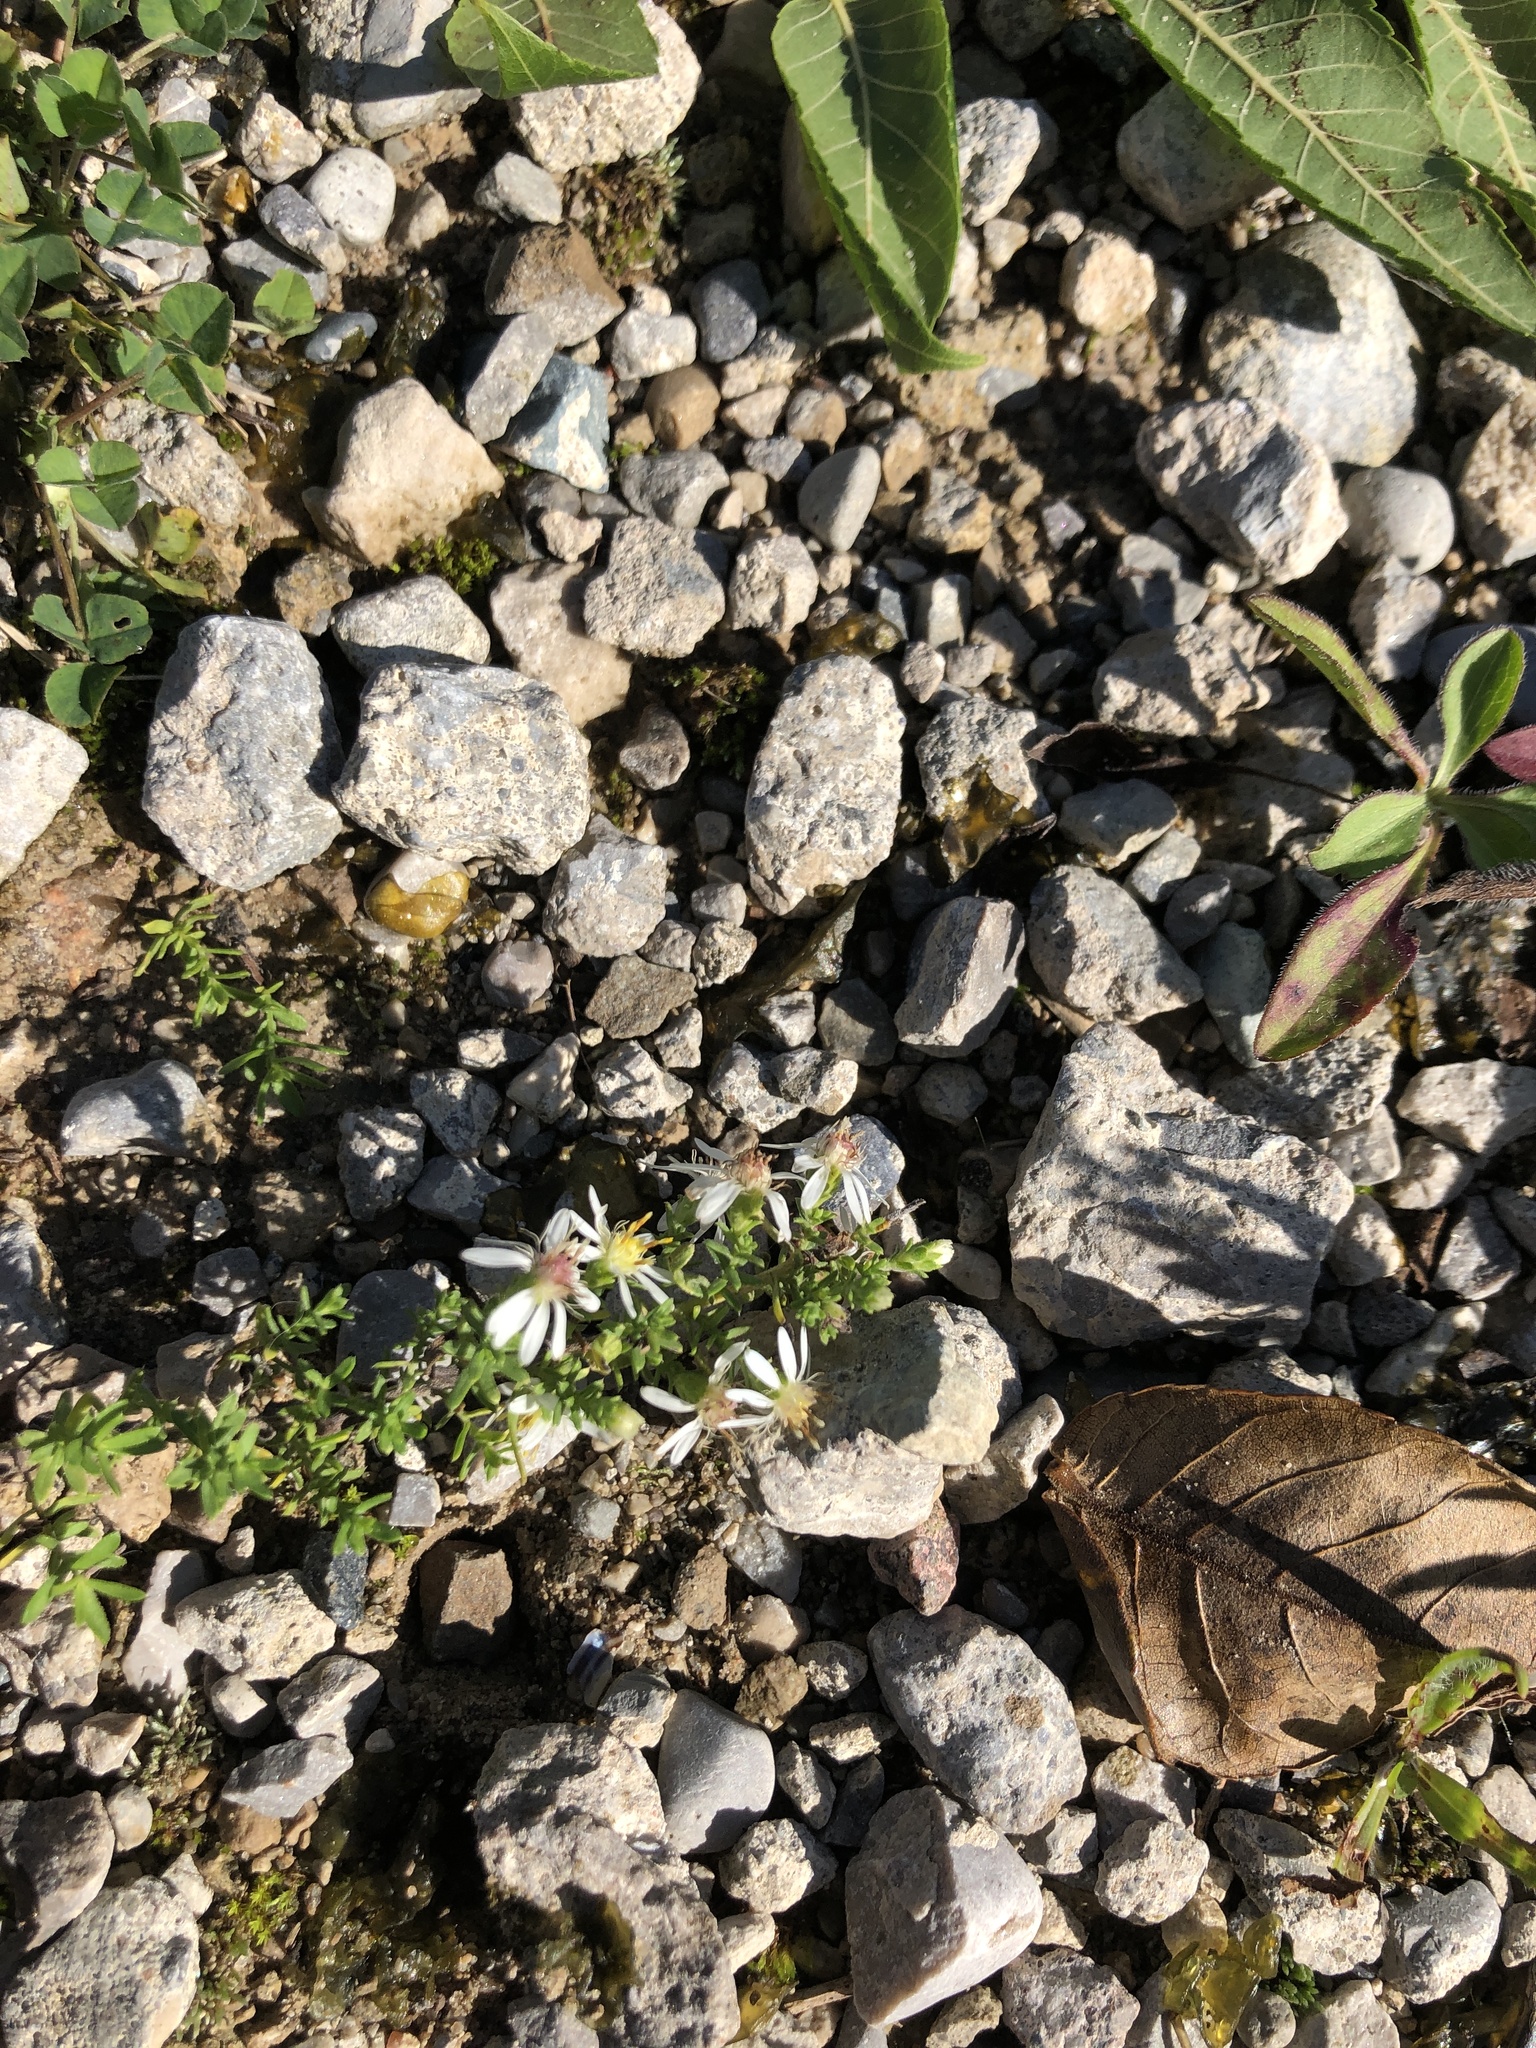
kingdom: Plantae
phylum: Tracheophyta
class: Magnoliopsida
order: Asterales
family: Asteraceae
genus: Symphyotrichum
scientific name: Symphyotrichum ericoides
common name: Heath aster
